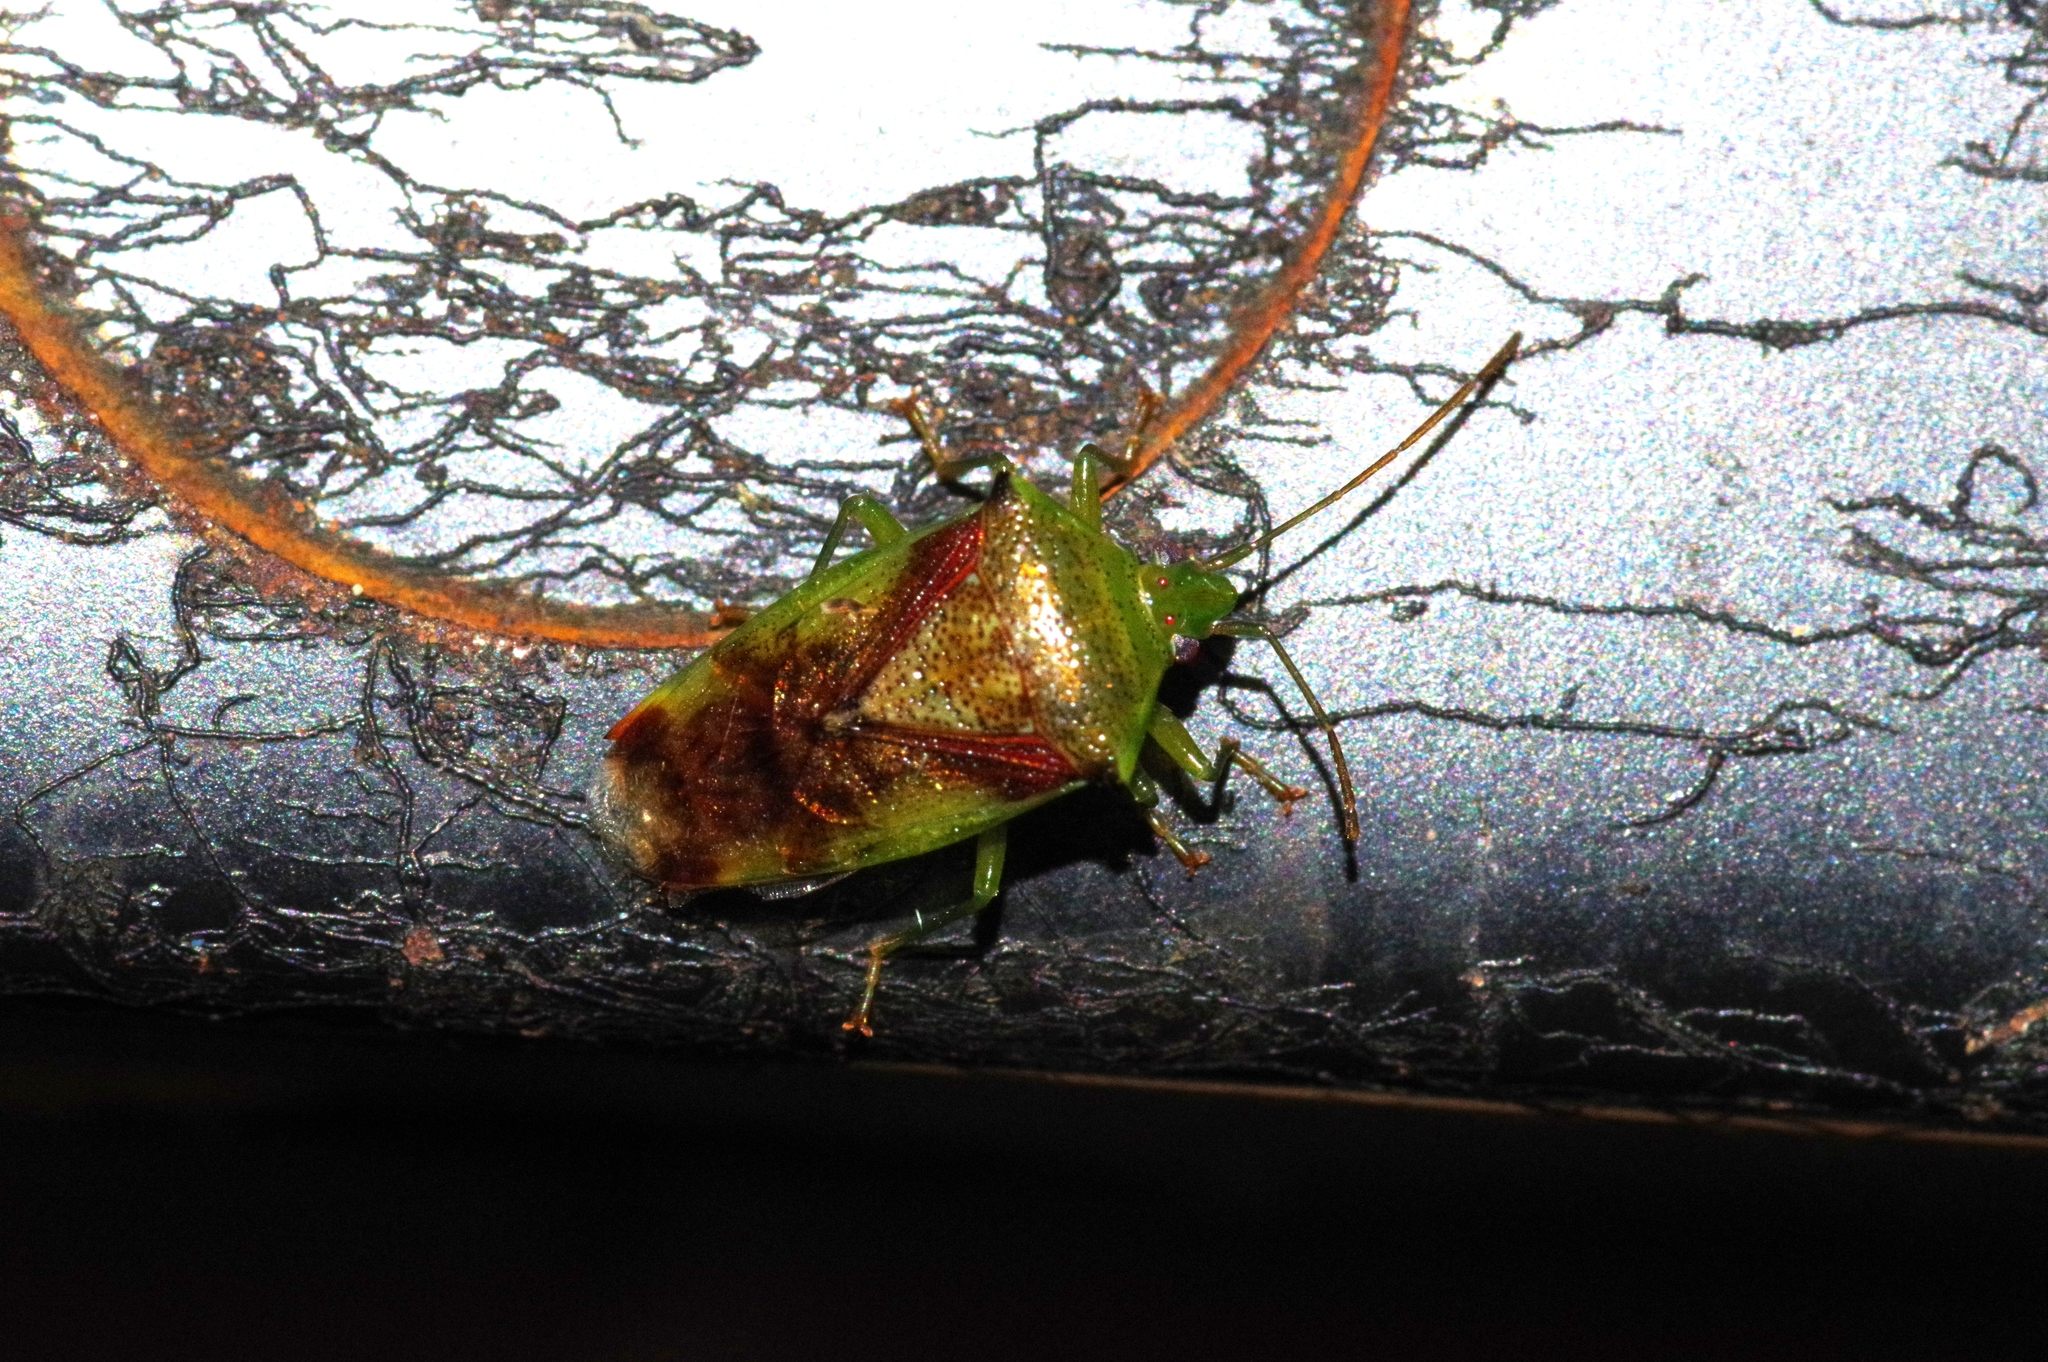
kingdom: Animalia
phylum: Arthropoda
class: Insecta
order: Hemiptera
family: Acanthosomatidae
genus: Elasmostethus
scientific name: Elasmostethus nubilus
